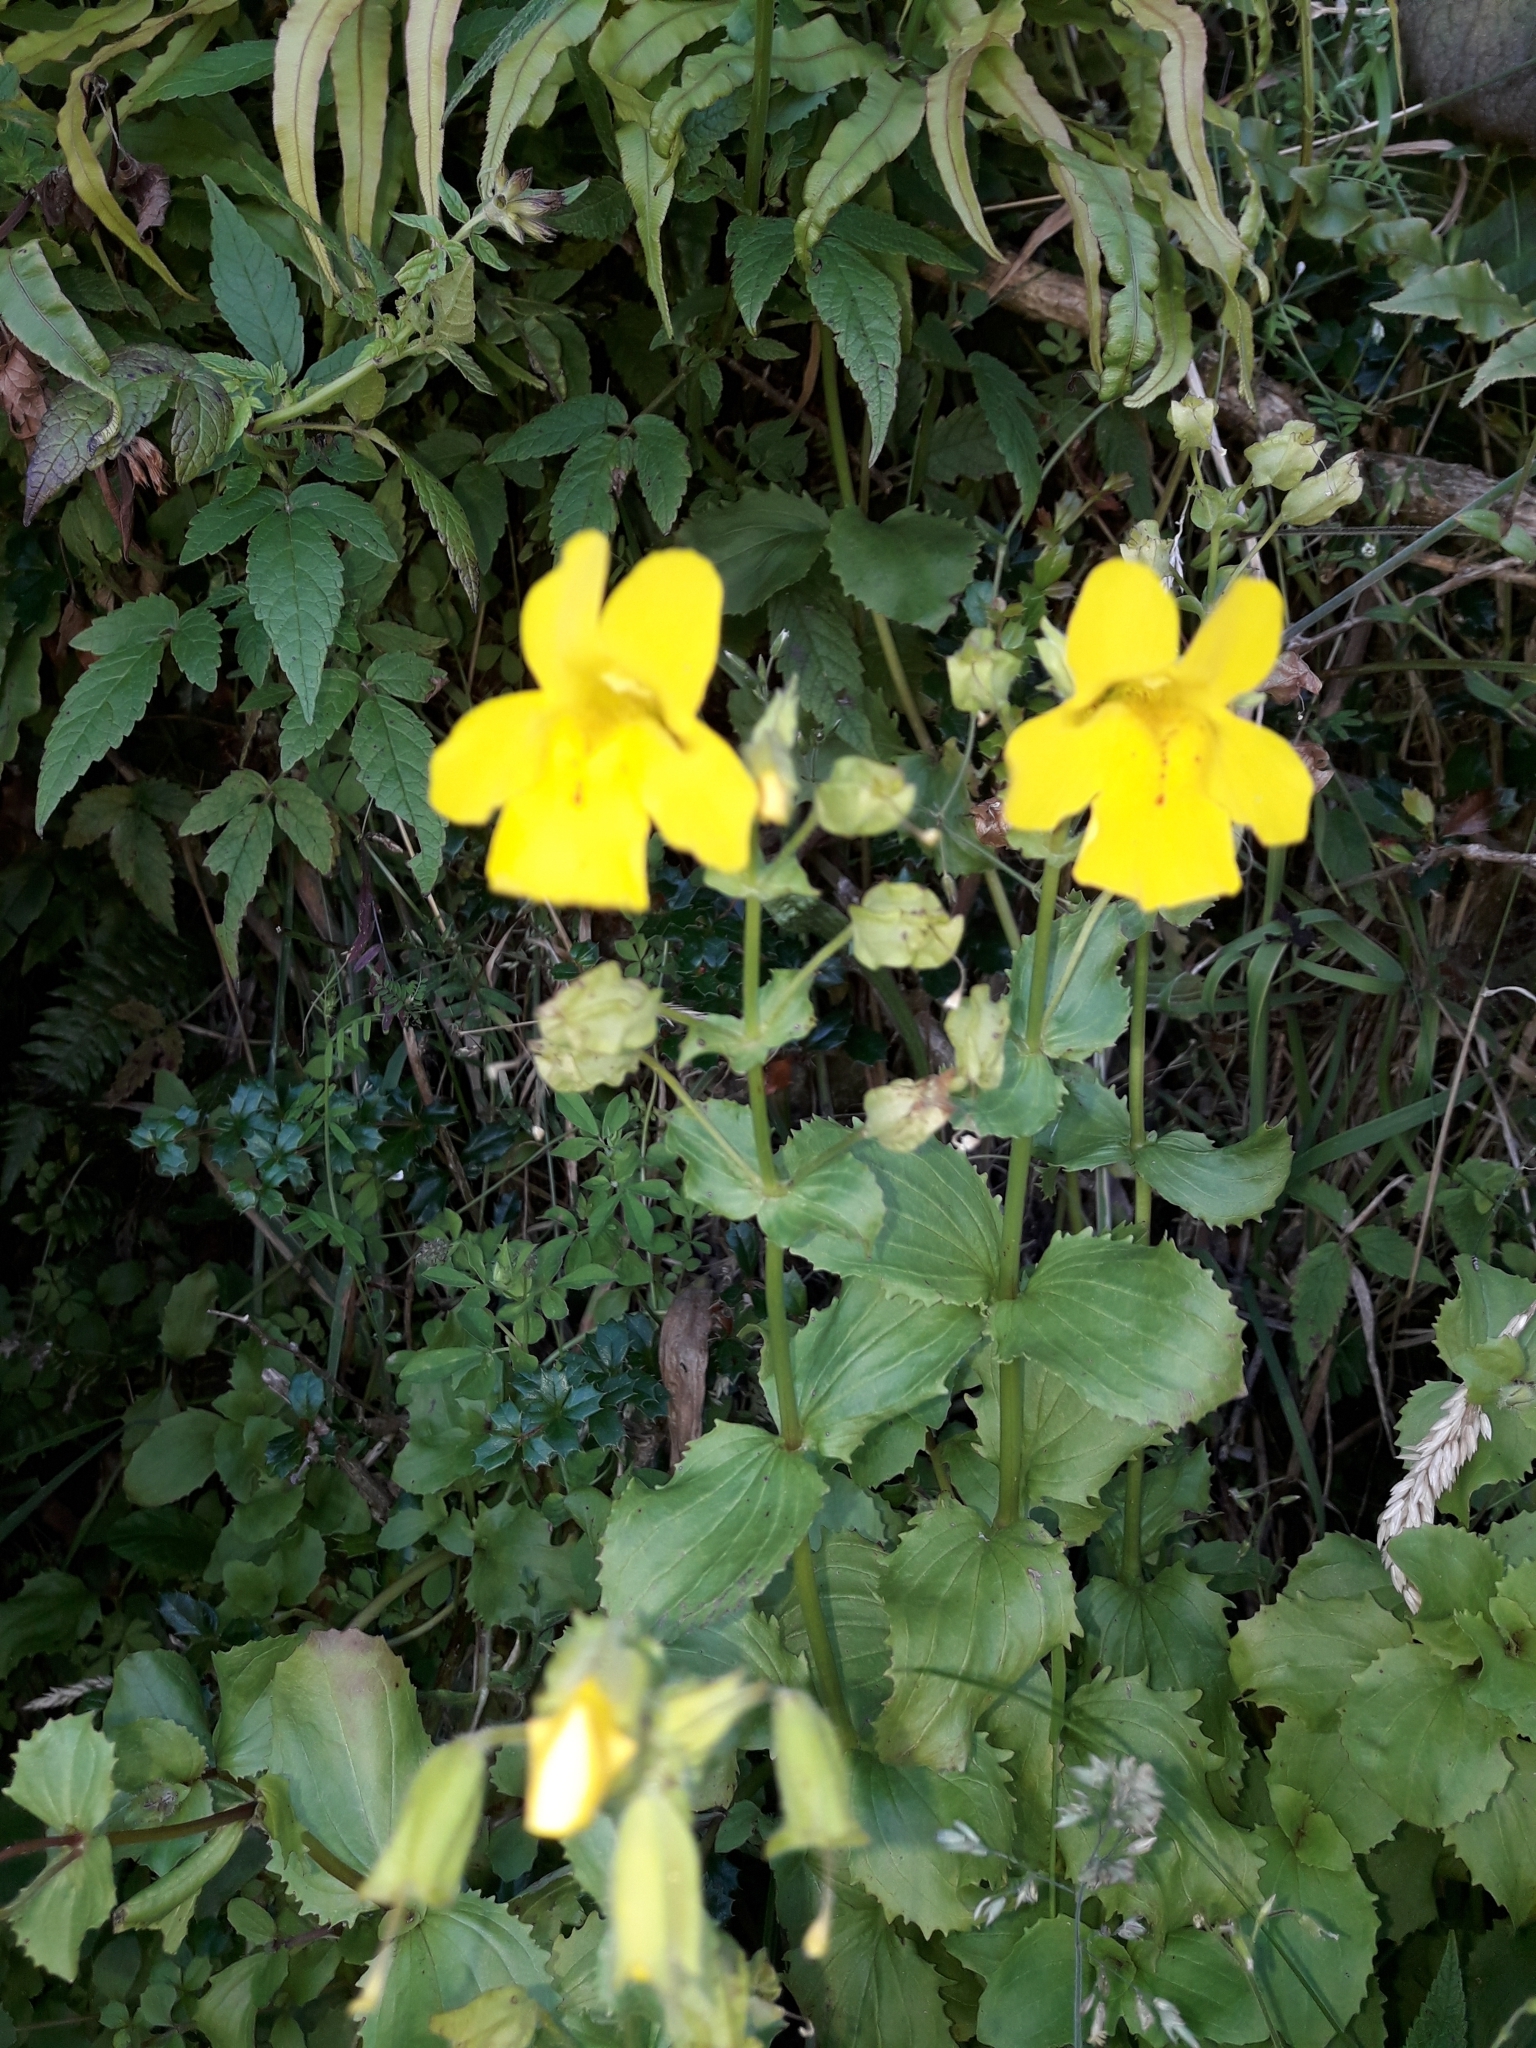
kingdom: Plantae
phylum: Tracheophyta
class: Magnoliopsida
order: Lamiales
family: Phrymaceae
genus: Erythranthe
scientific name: Erythranthe guttata
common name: Monkeyflower
